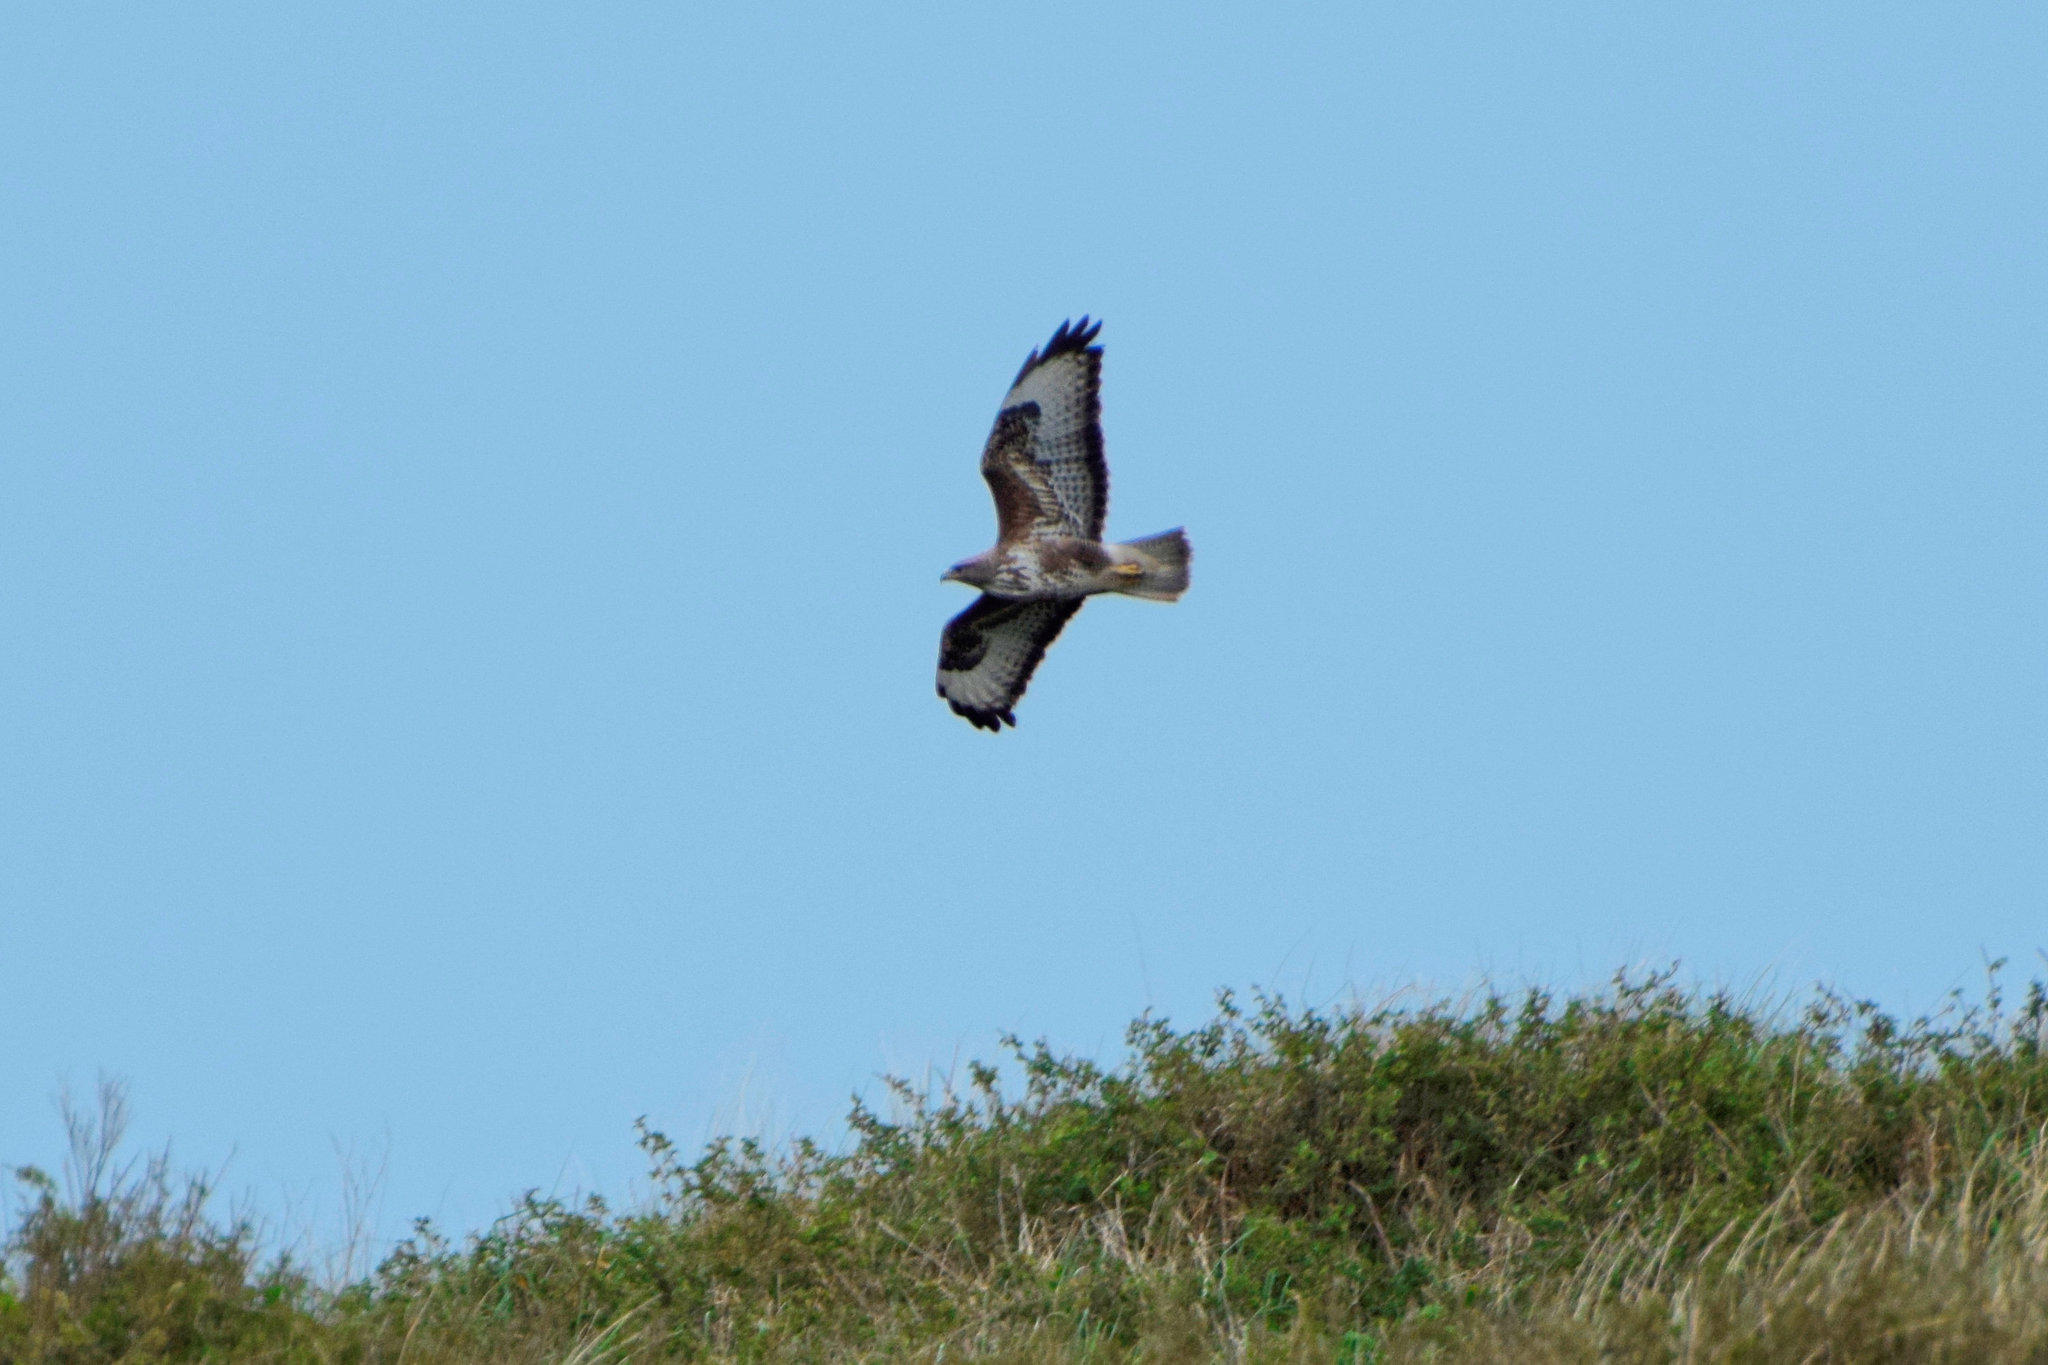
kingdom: Animalia
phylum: Chordata
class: Aves
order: Accipitriformes
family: Accipitridae
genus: Buteo
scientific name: Buteo buteo
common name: Common buzzard
